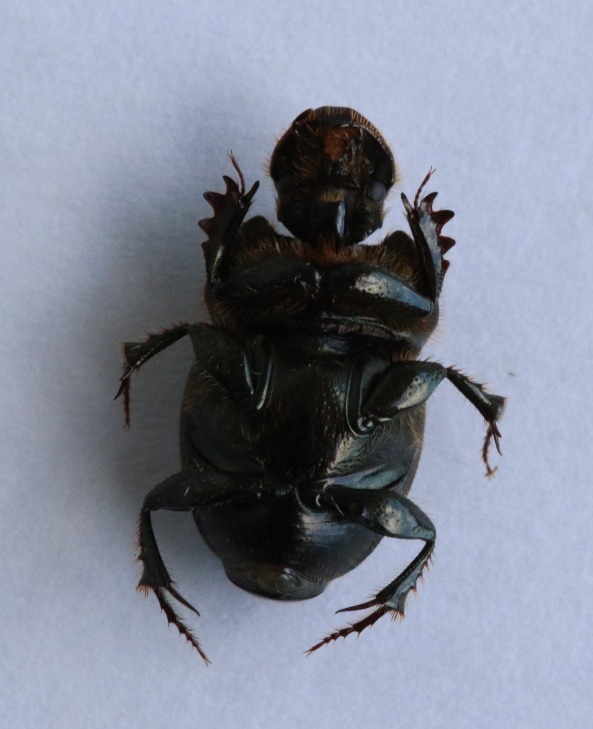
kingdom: Animalia
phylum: Arthropoda
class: Insecta
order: Coleoptera
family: Scarabaeidae
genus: Onthophagus
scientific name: Onthophagus medius
